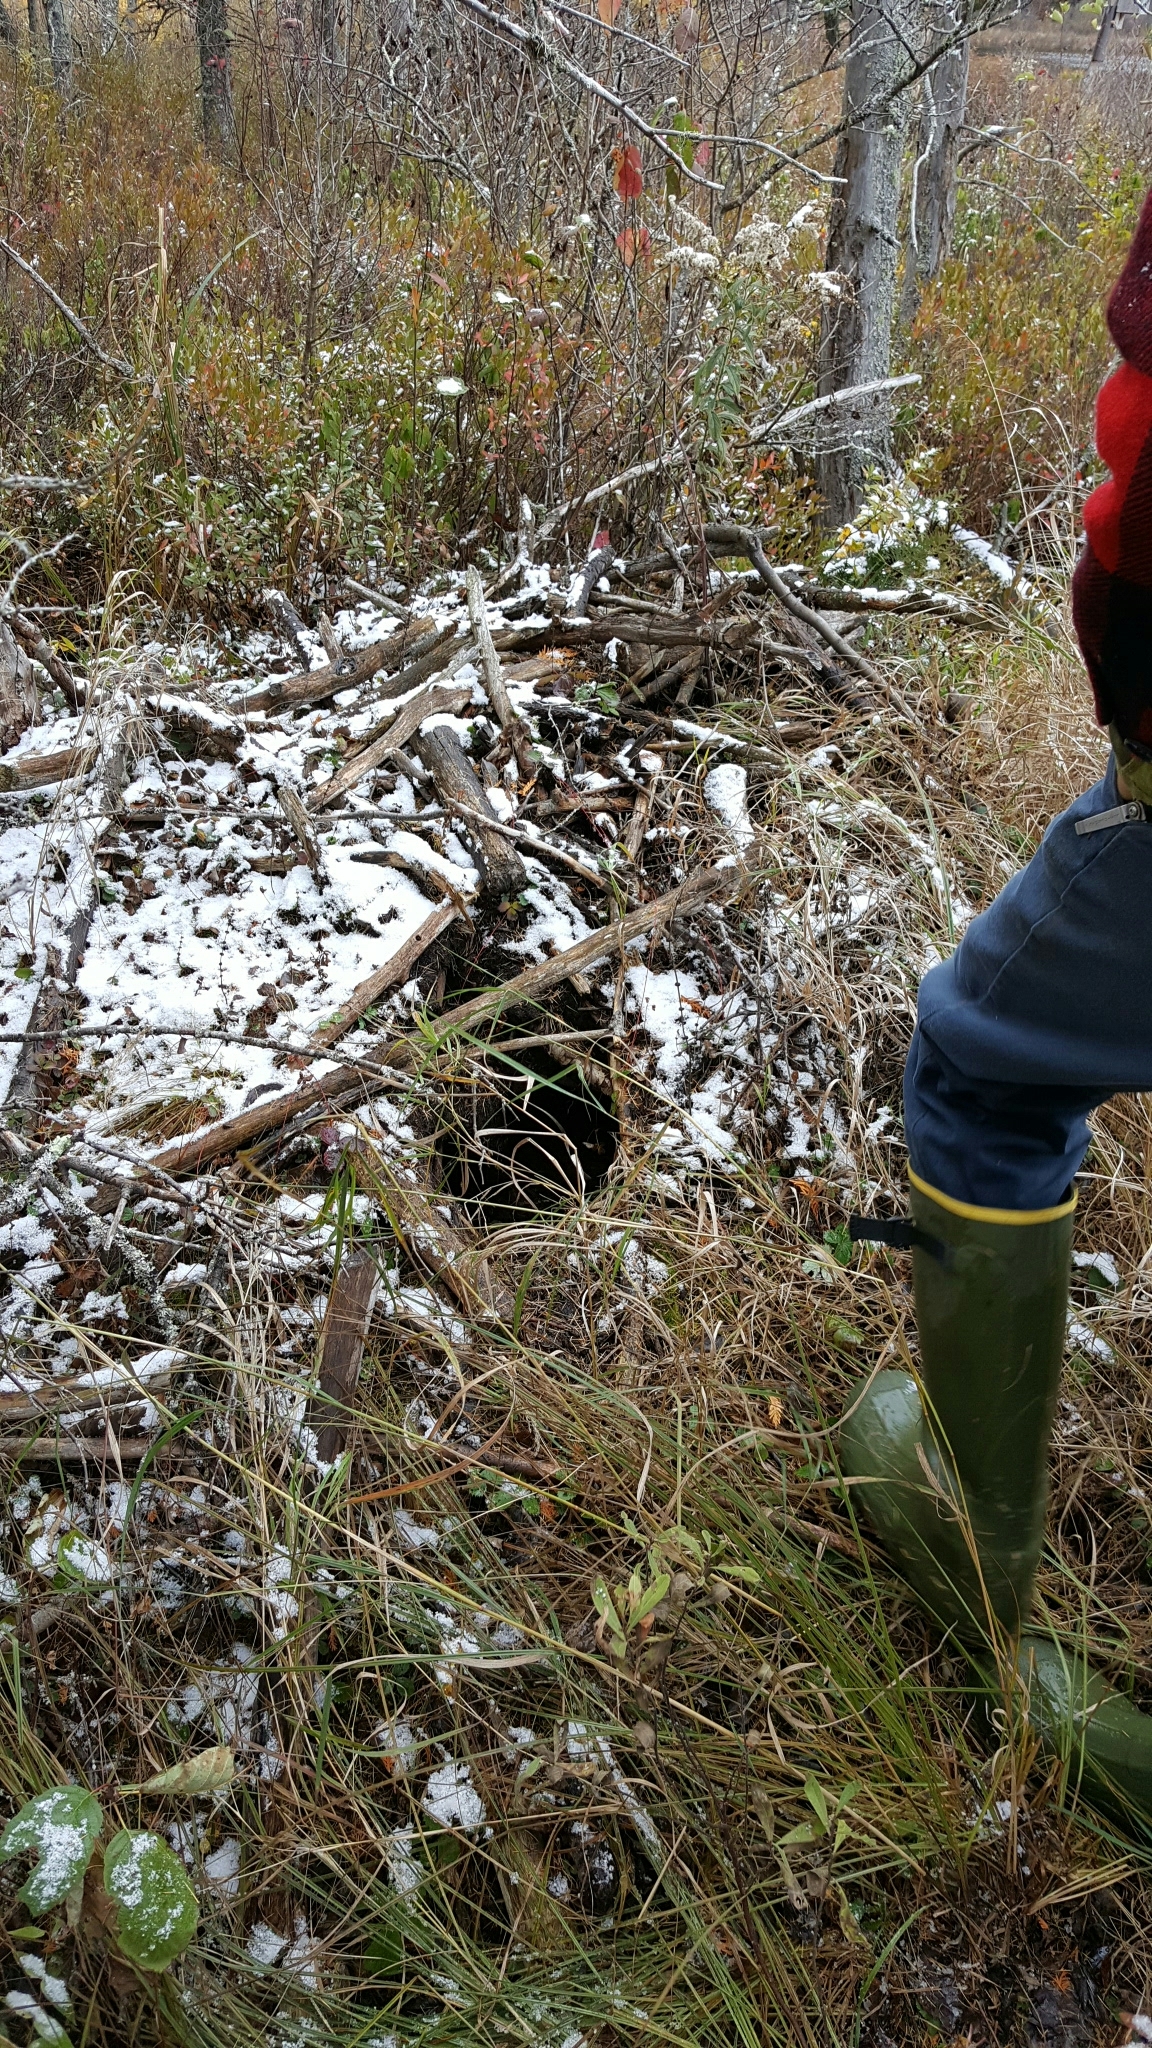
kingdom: Animalia
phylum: Chordata
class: Mammalia
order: Rodentia
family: Castoridae
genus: Castor
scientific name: Castor canadensis
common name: American beaver
